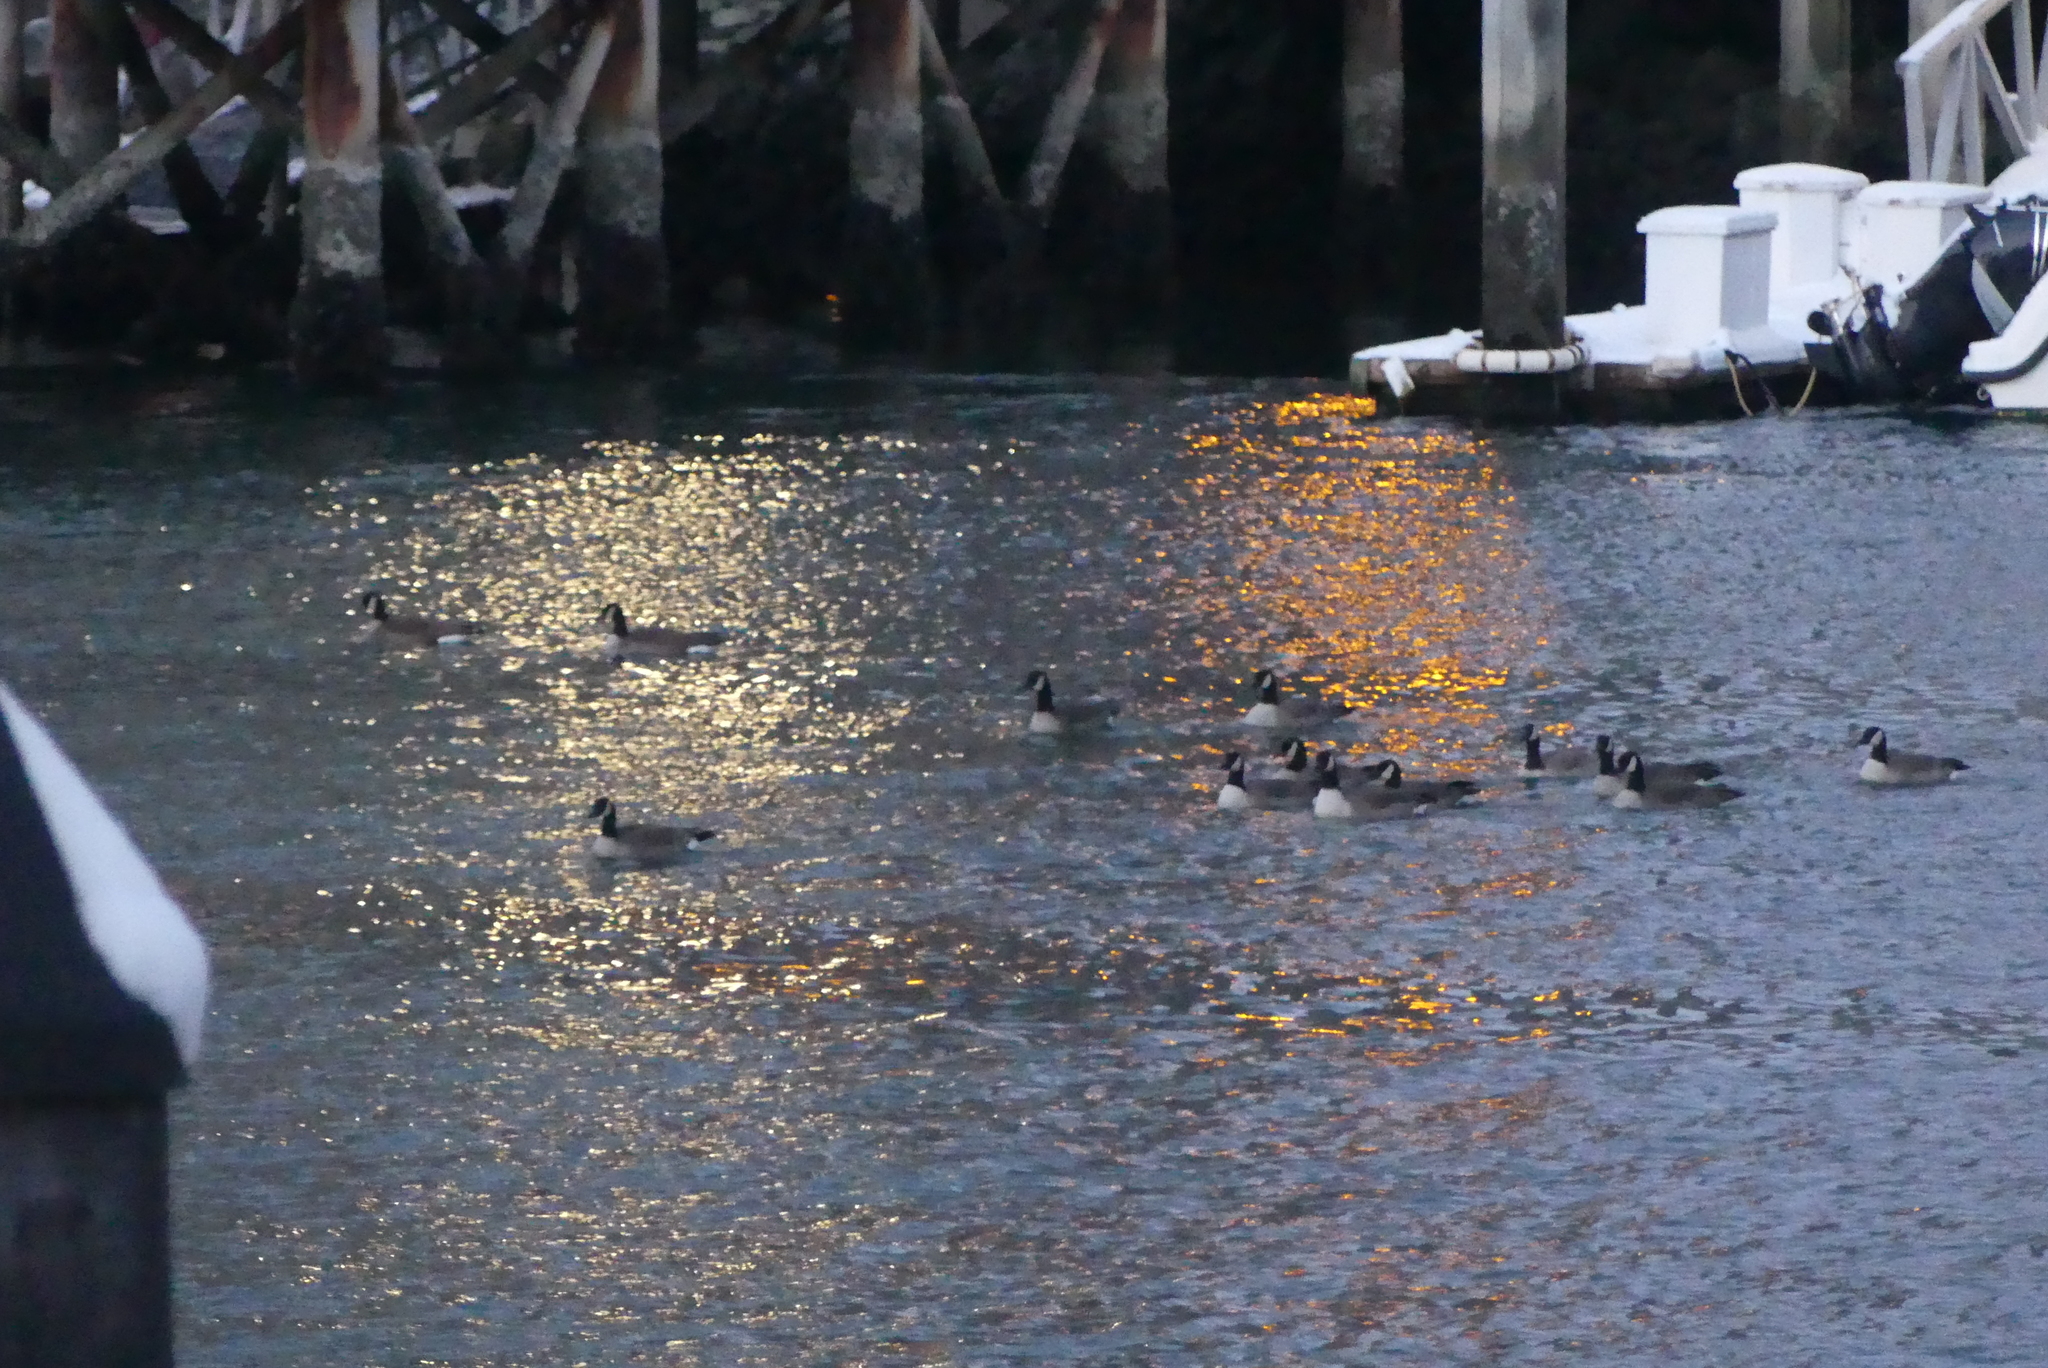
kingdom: Animalia
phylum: Chordata
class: Aves
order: Anseriformes
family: Anatidae
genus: Branta
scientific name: Branta canadensis
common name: Canada goose
